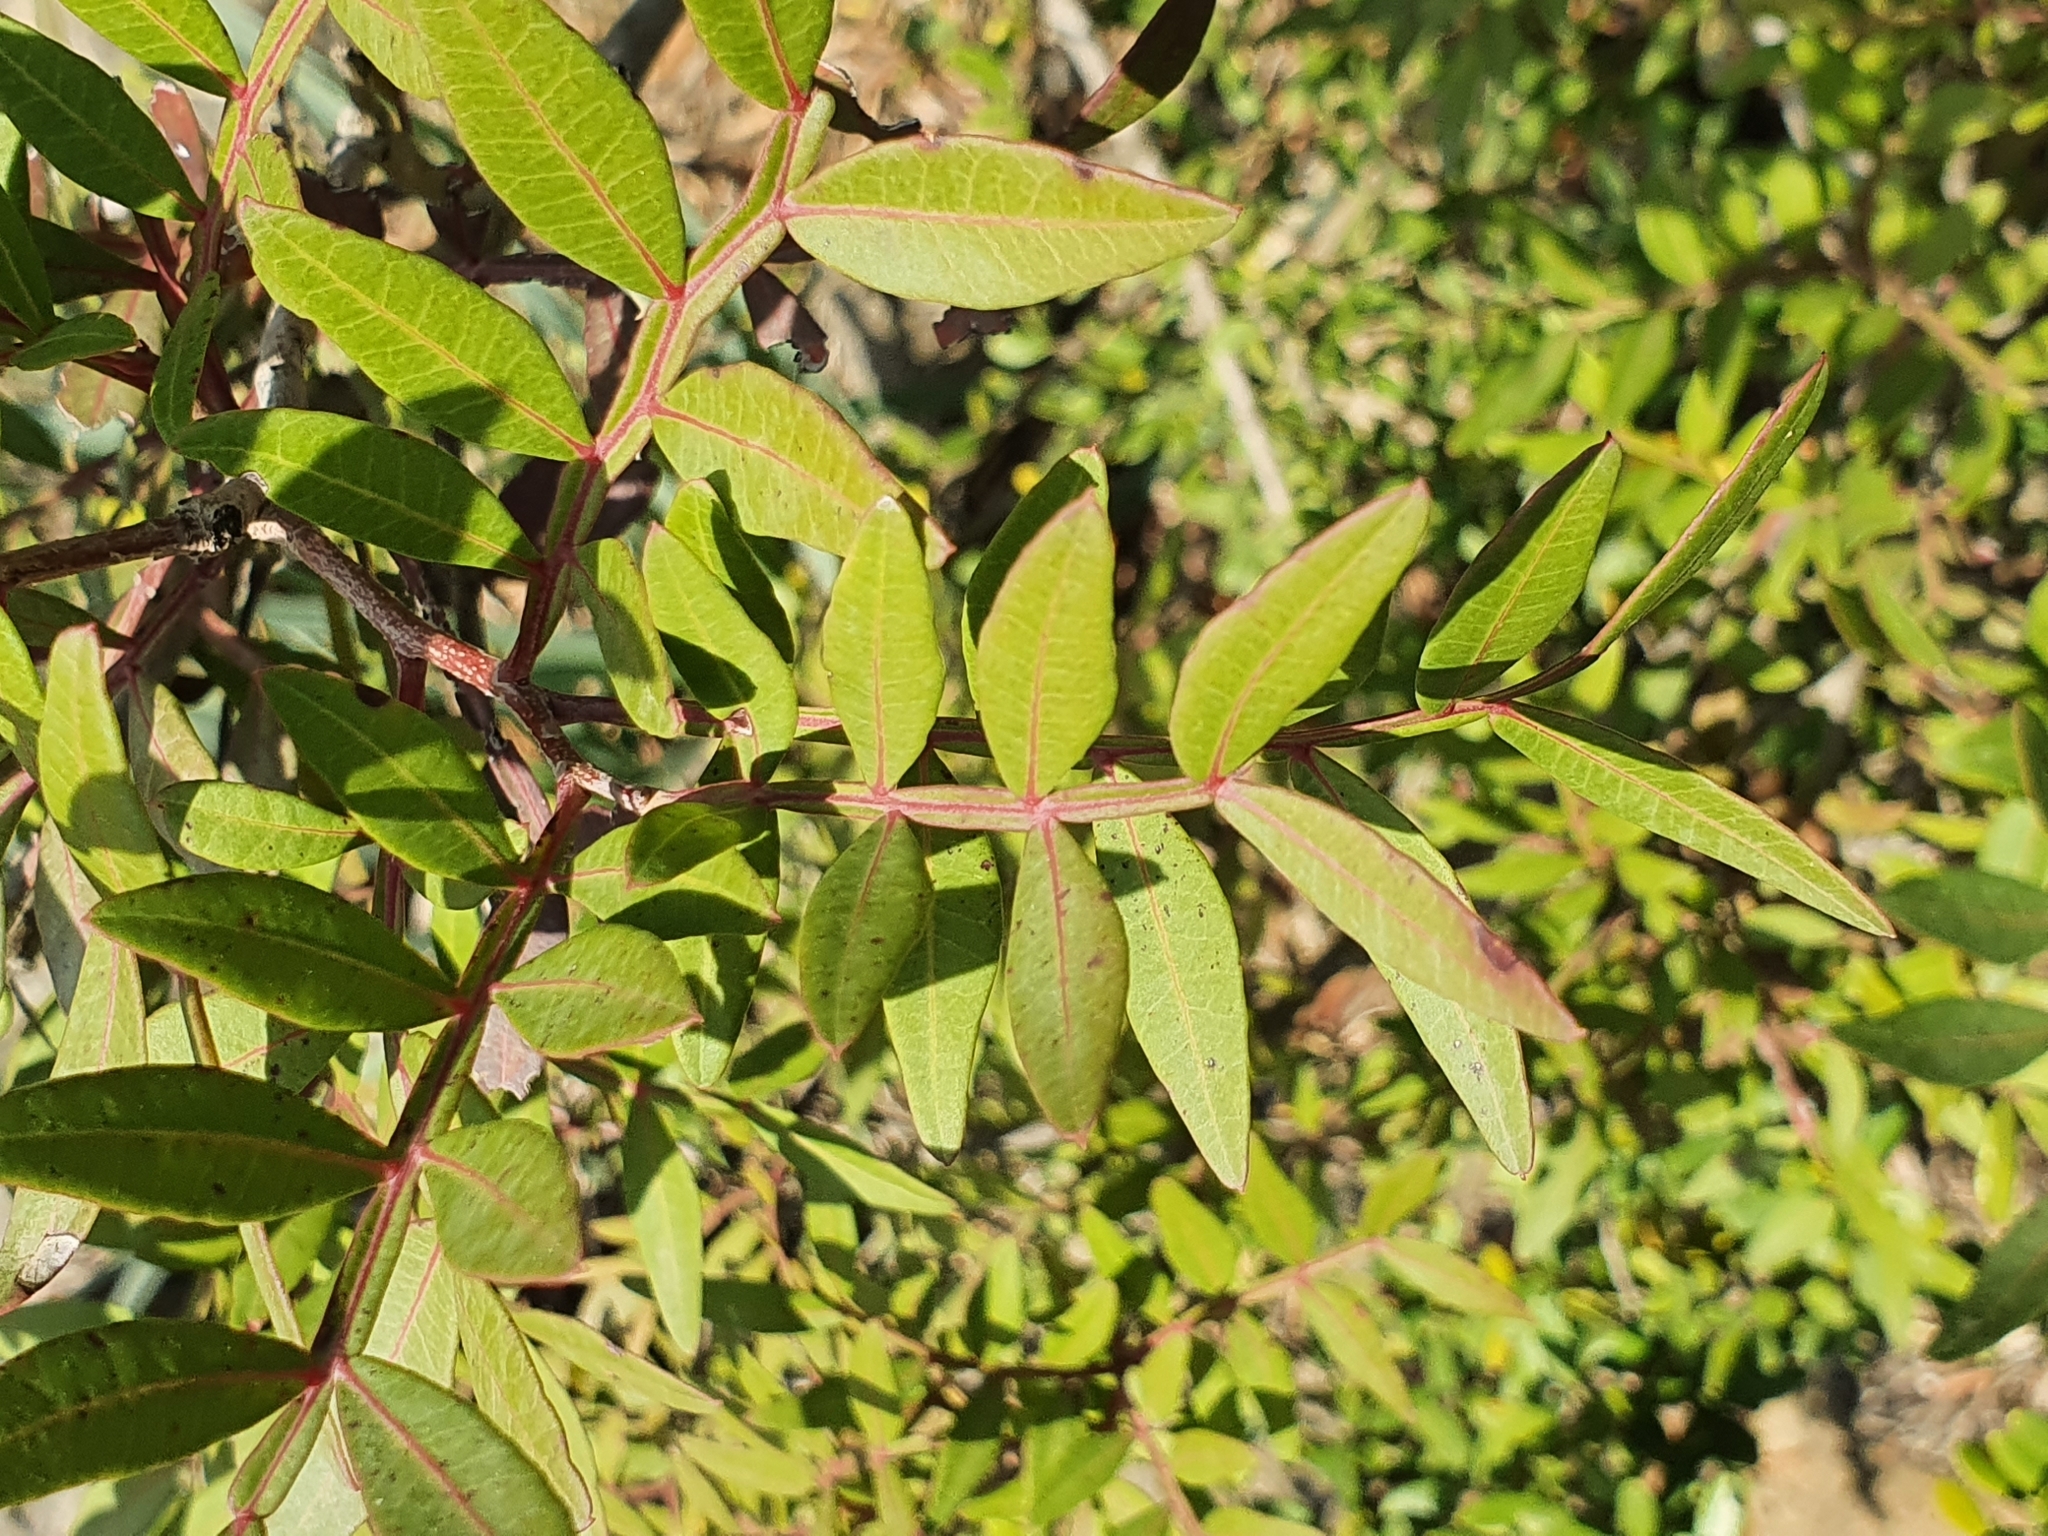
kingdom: Plantae
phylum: Tracheophyta
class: Magnoliopsida
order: Sapindales
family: Anacardiaceae
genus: Pistacia
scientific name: Pistacia lentiscus
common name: Lentisk
